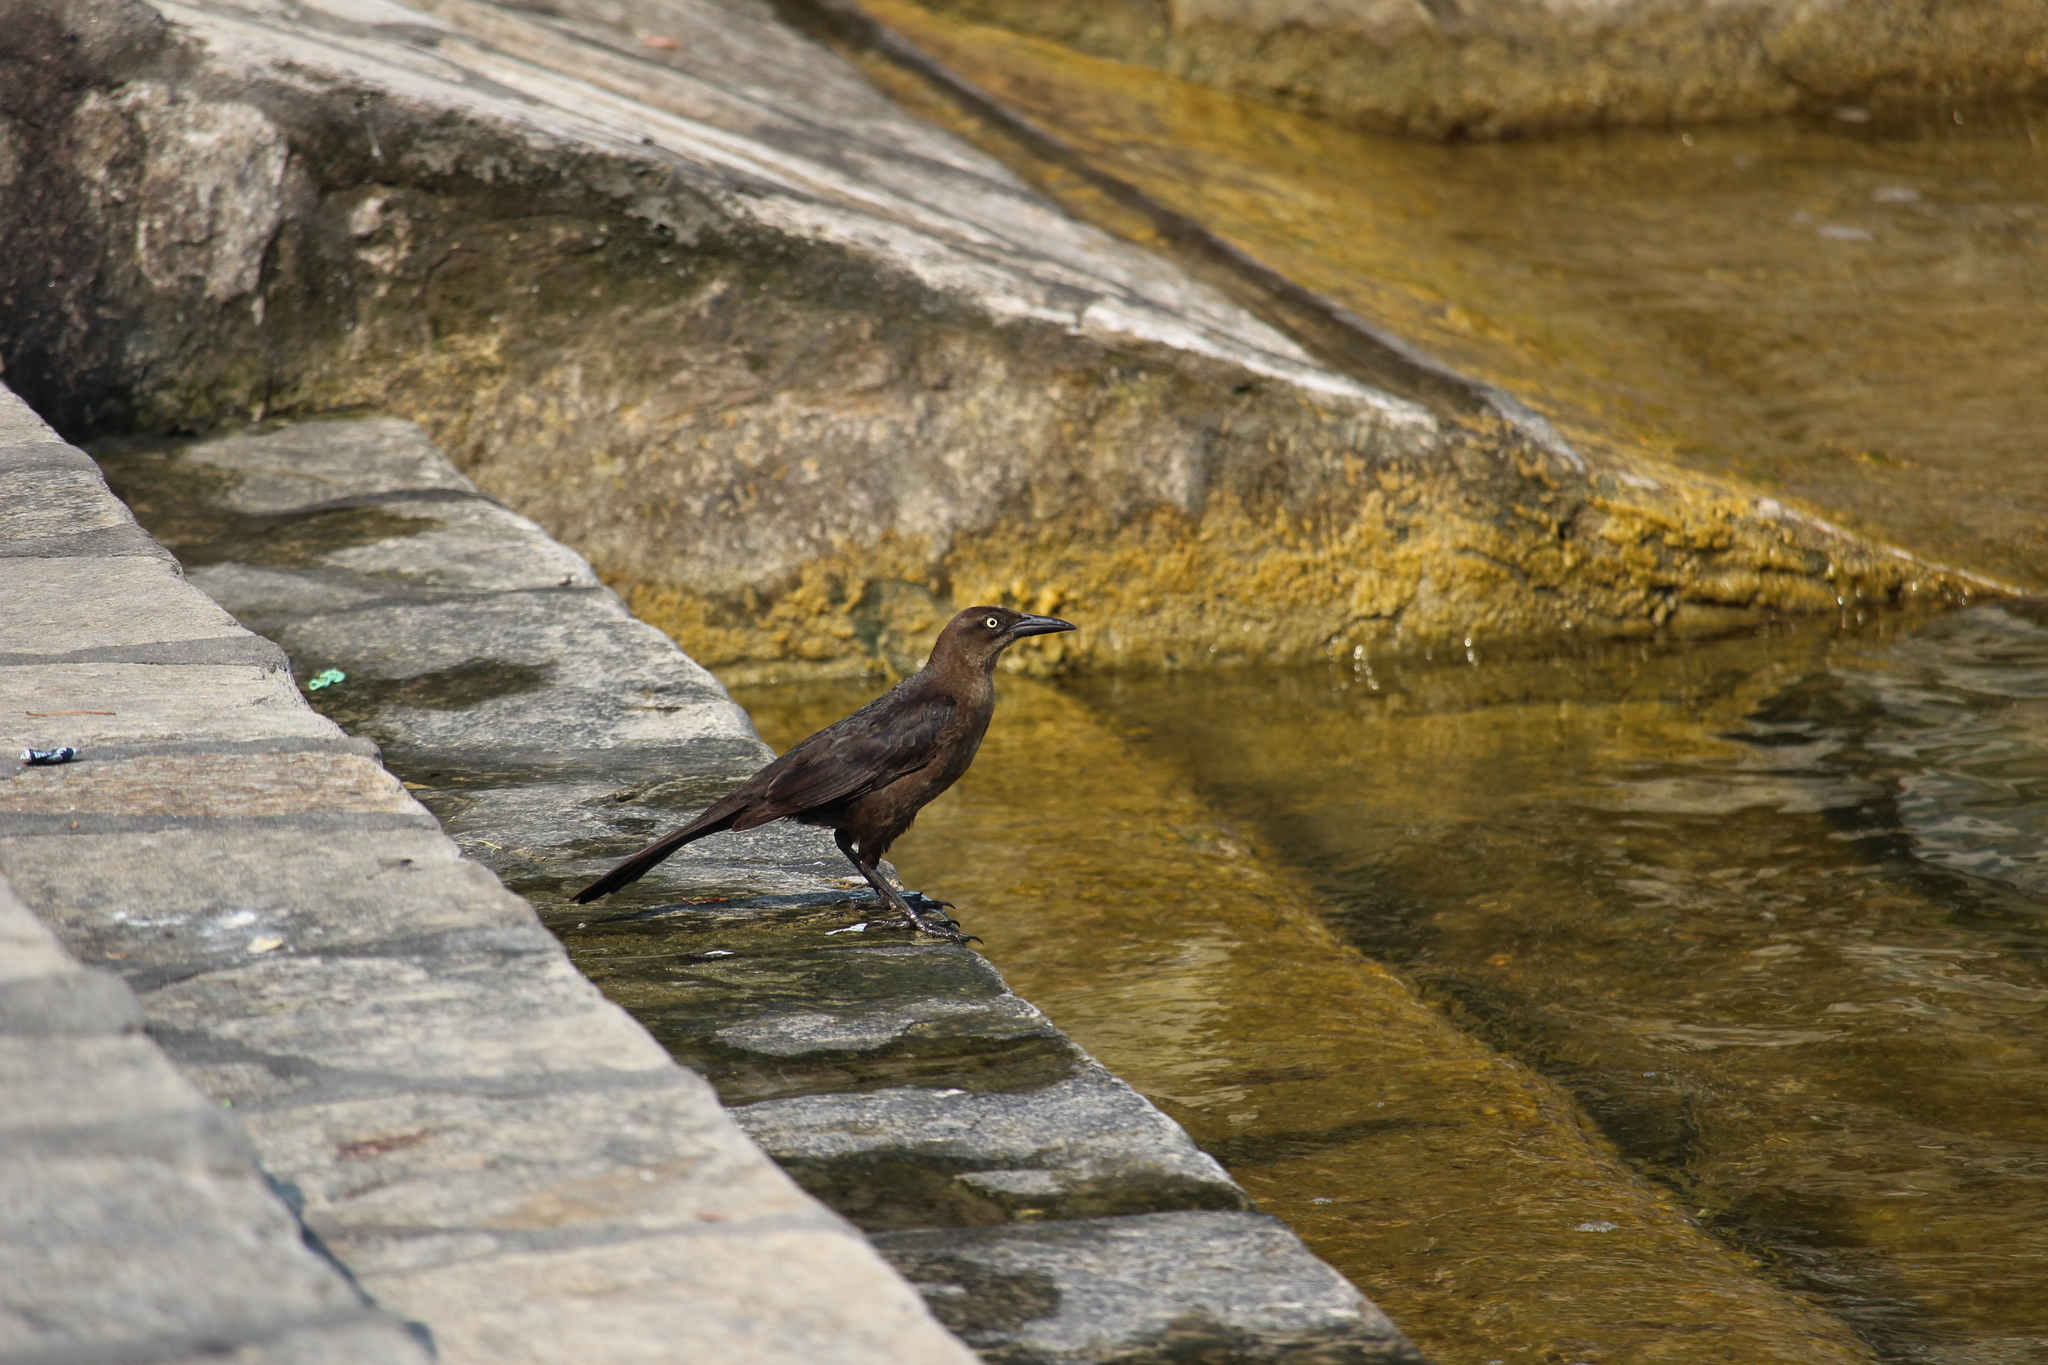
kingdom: Animalia
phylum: Chordata
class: Aves
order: Passeriformes
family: Icteridae
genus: Quiscalus
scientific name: Quiscalus mexicanus
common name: Great-tailed grackle
